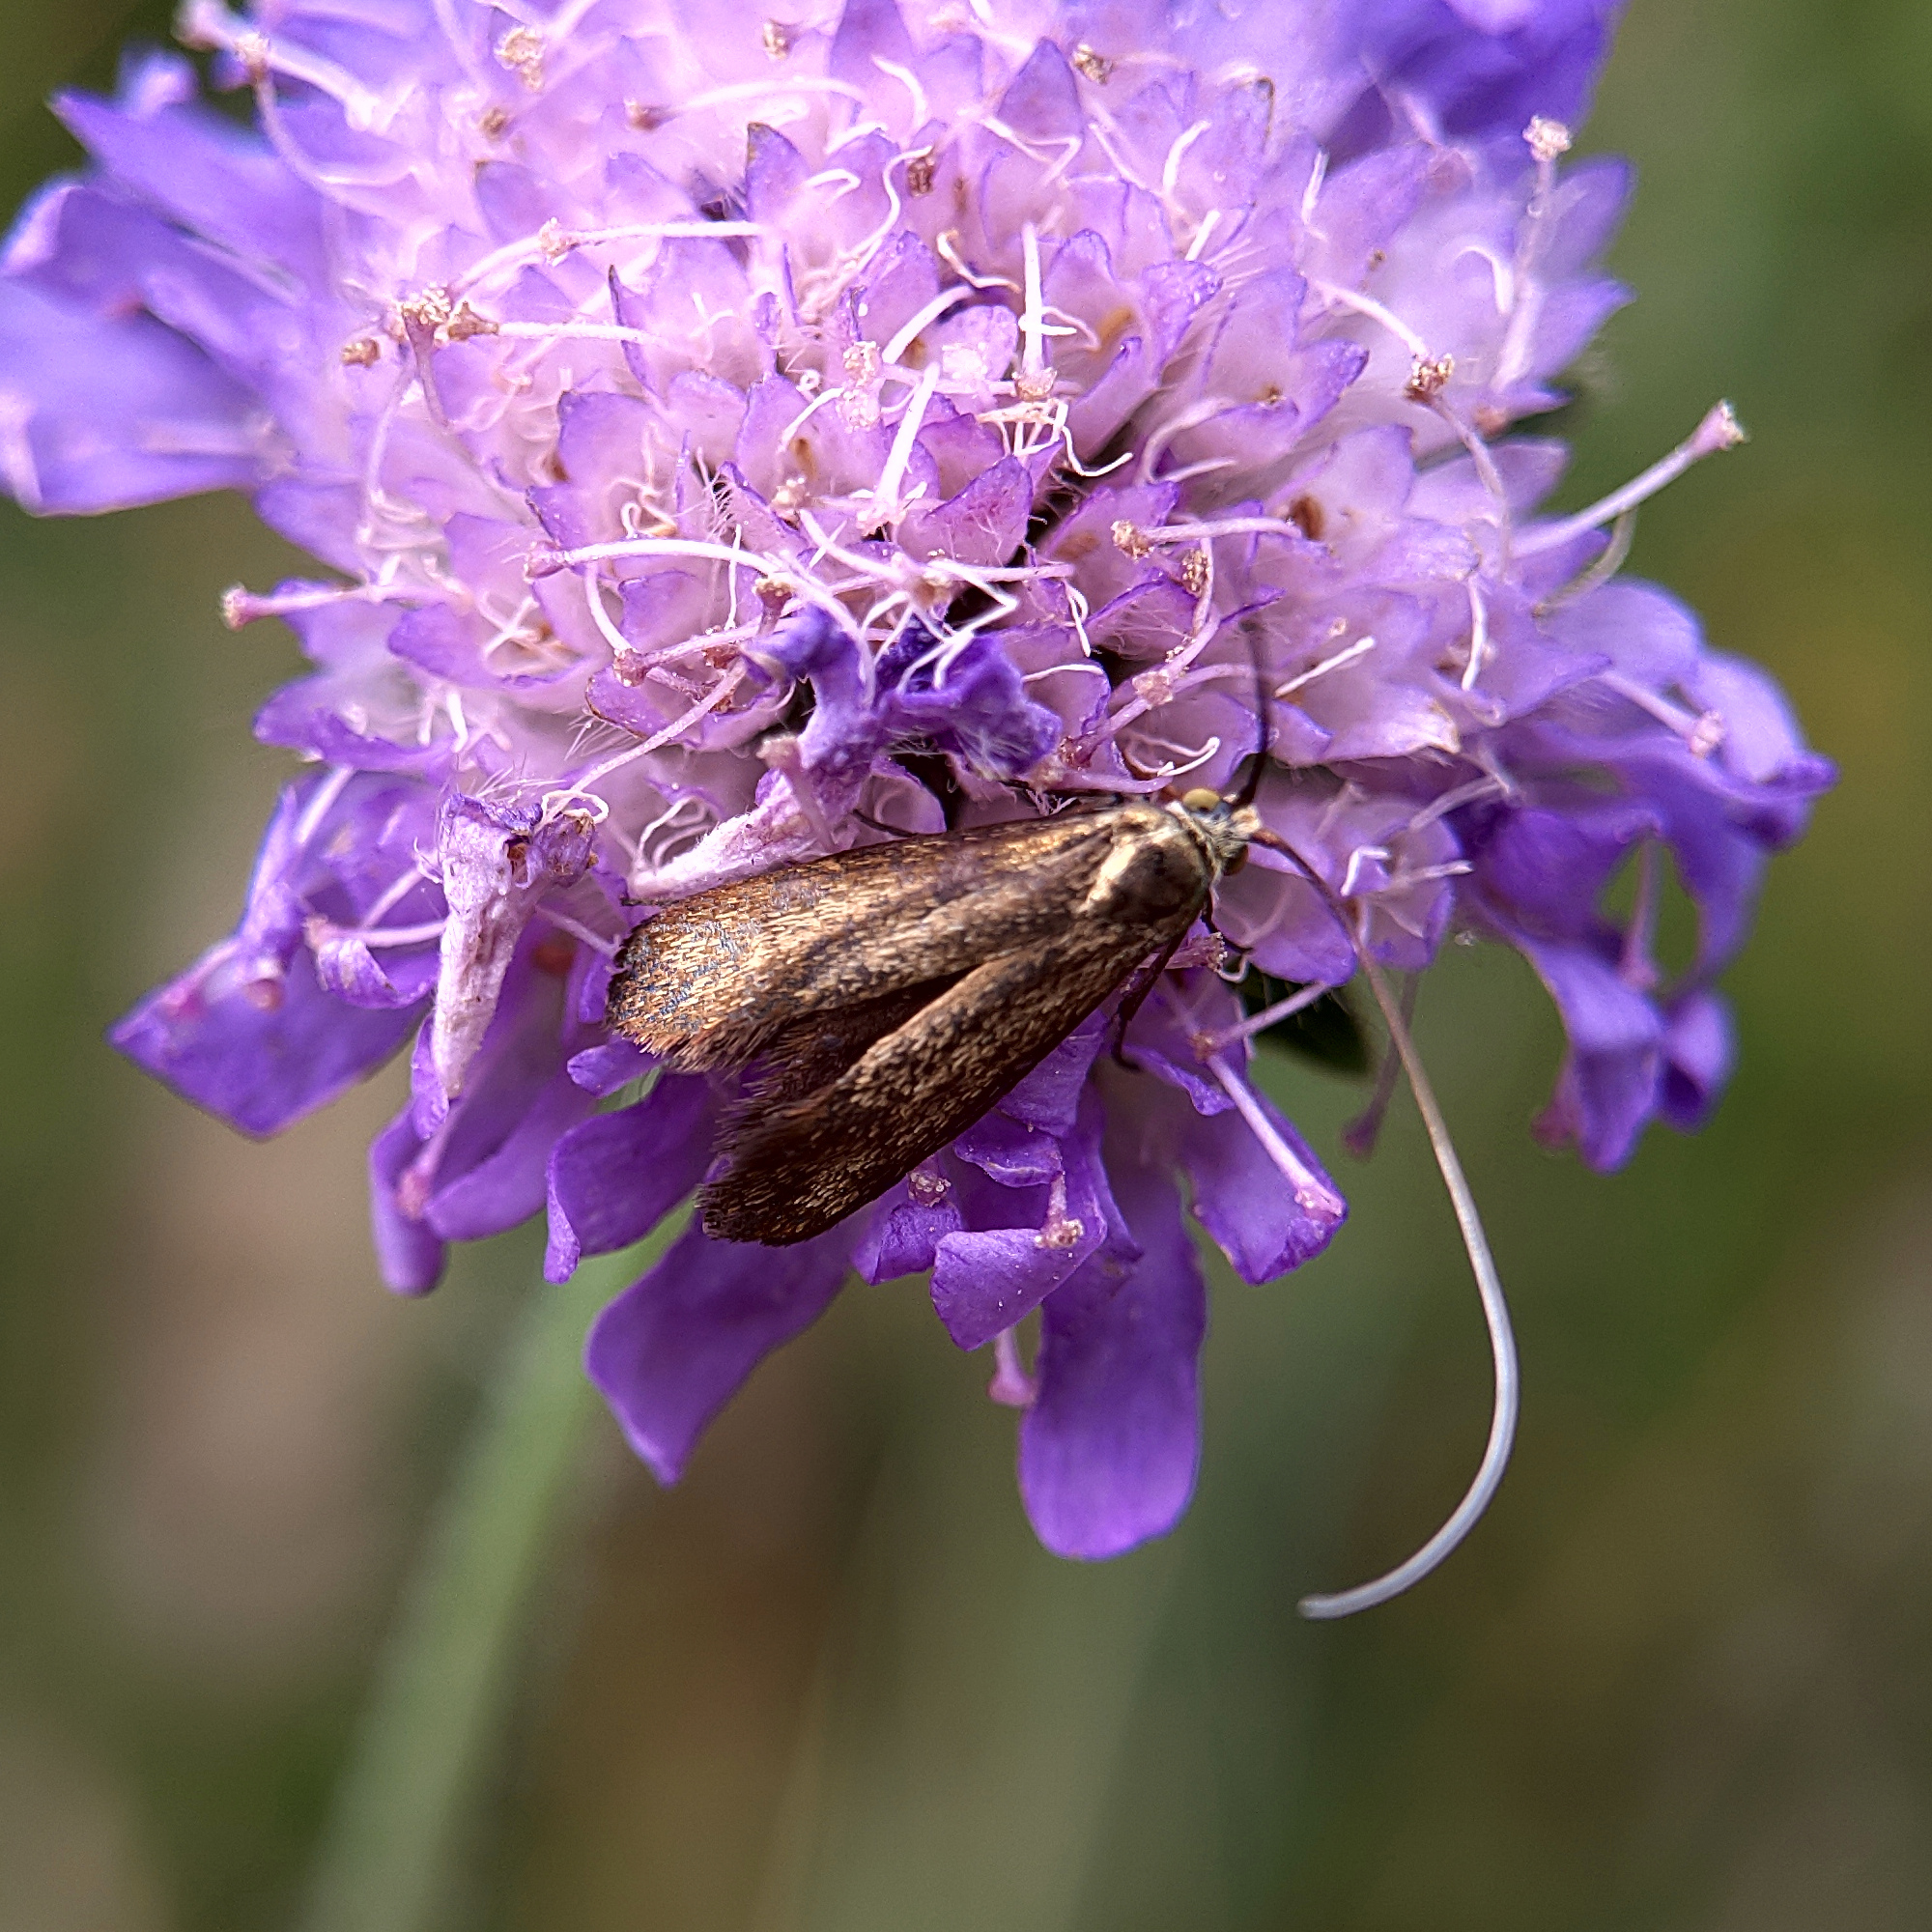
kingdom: Animalia
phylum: Arthropoda
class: Insecta
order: Lepidoptera
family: Adelidae
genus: Nemophora
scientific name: Nemophora metallica
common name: Brassy long-horn
